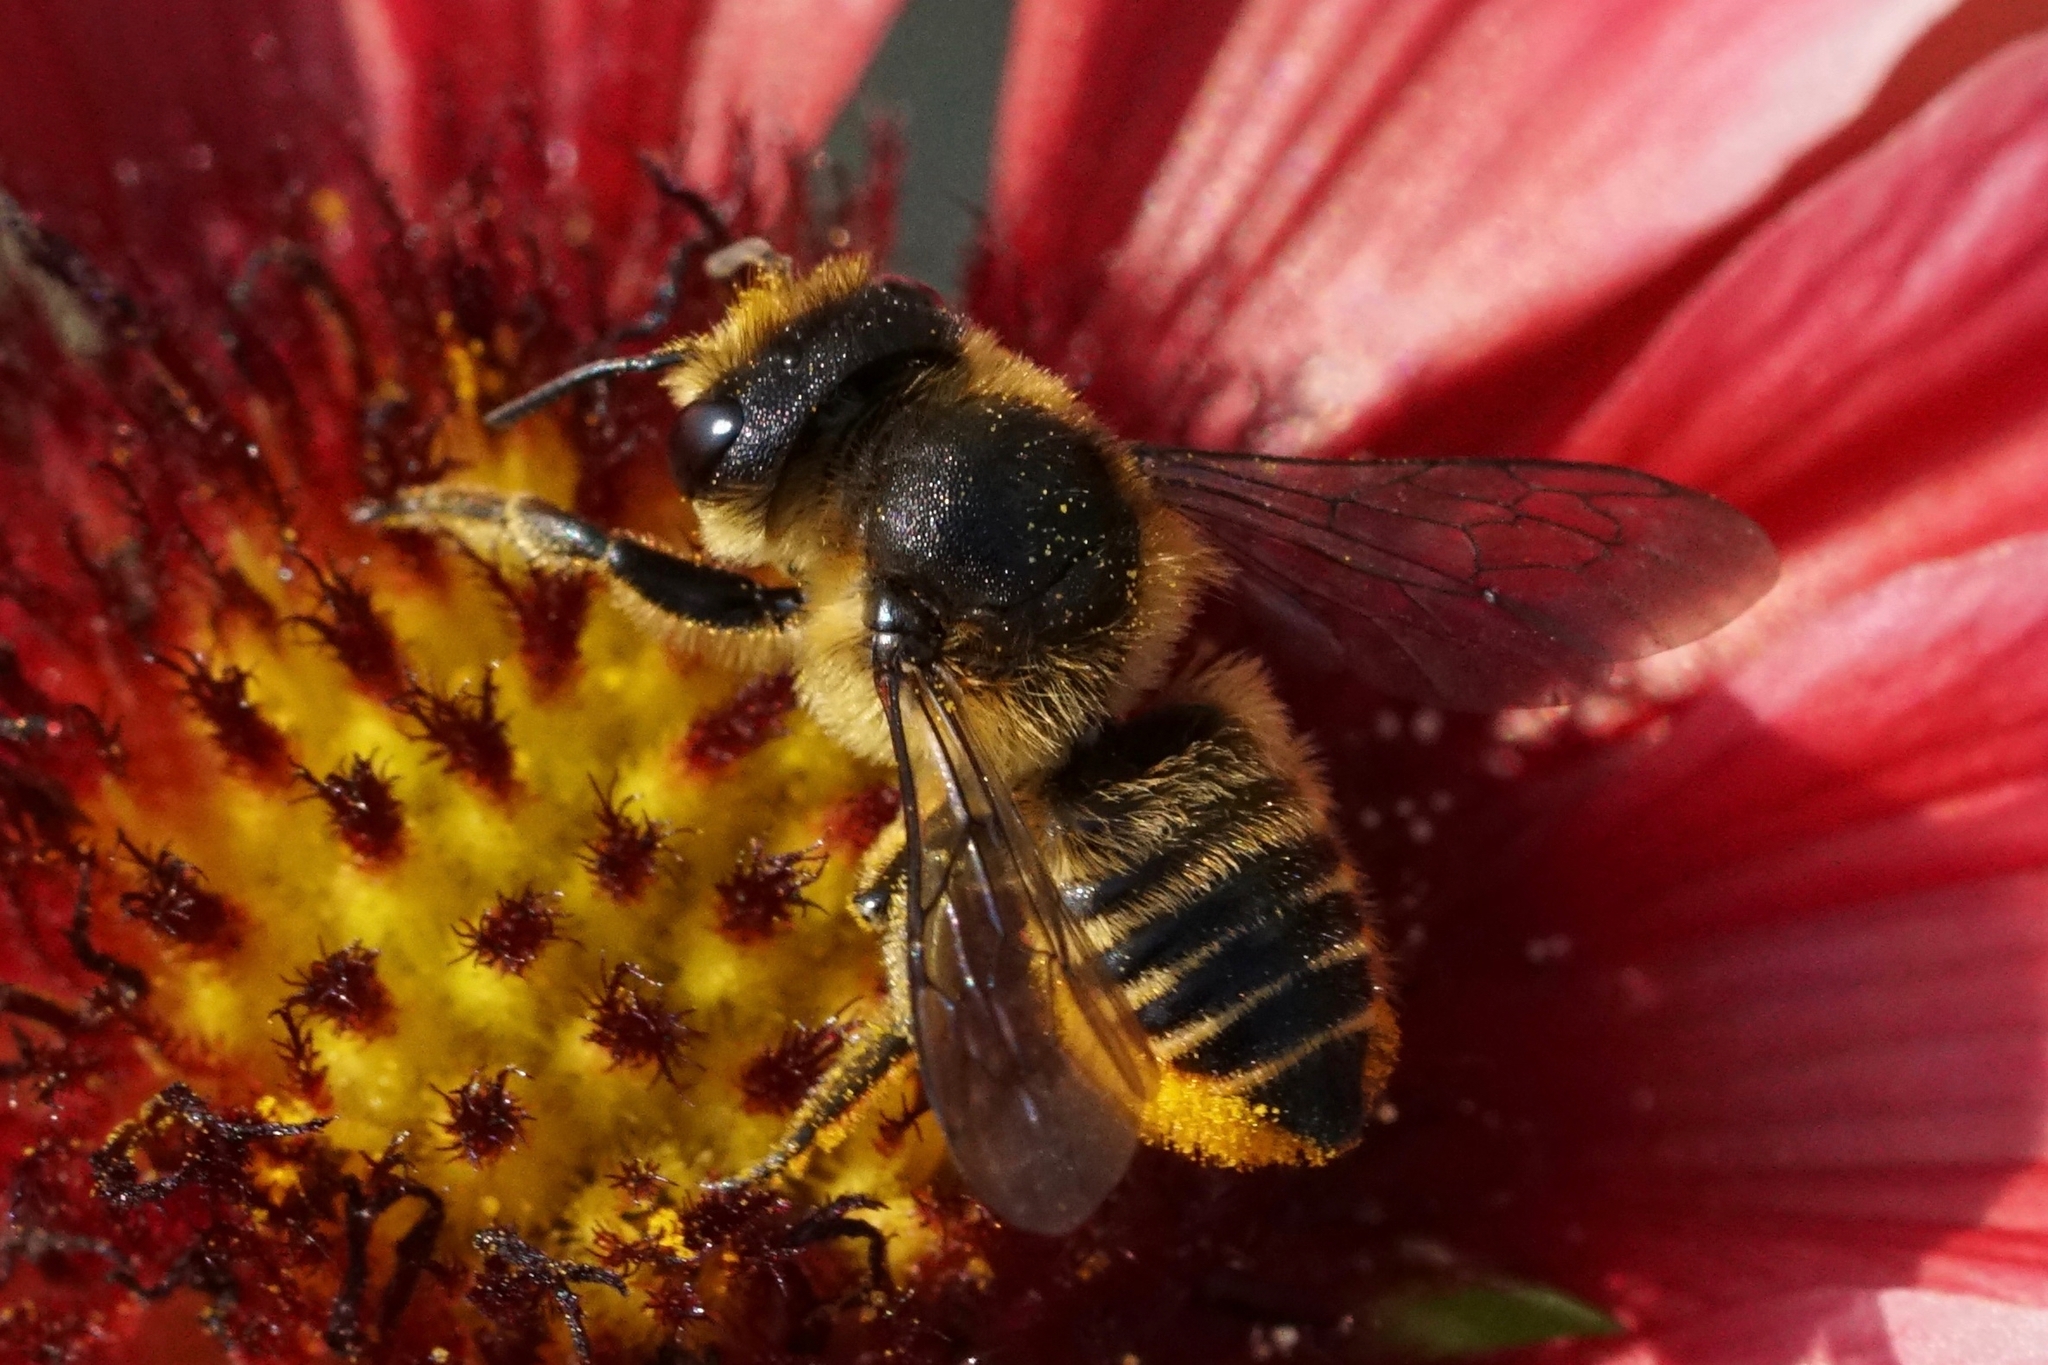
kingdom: Animalia
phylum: Arthropoda
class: Insecta
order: Hymenoptera
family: Megachilidae
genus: Megachile
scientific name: Megachile centuncularis
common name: Patchwork leafcutter bee
